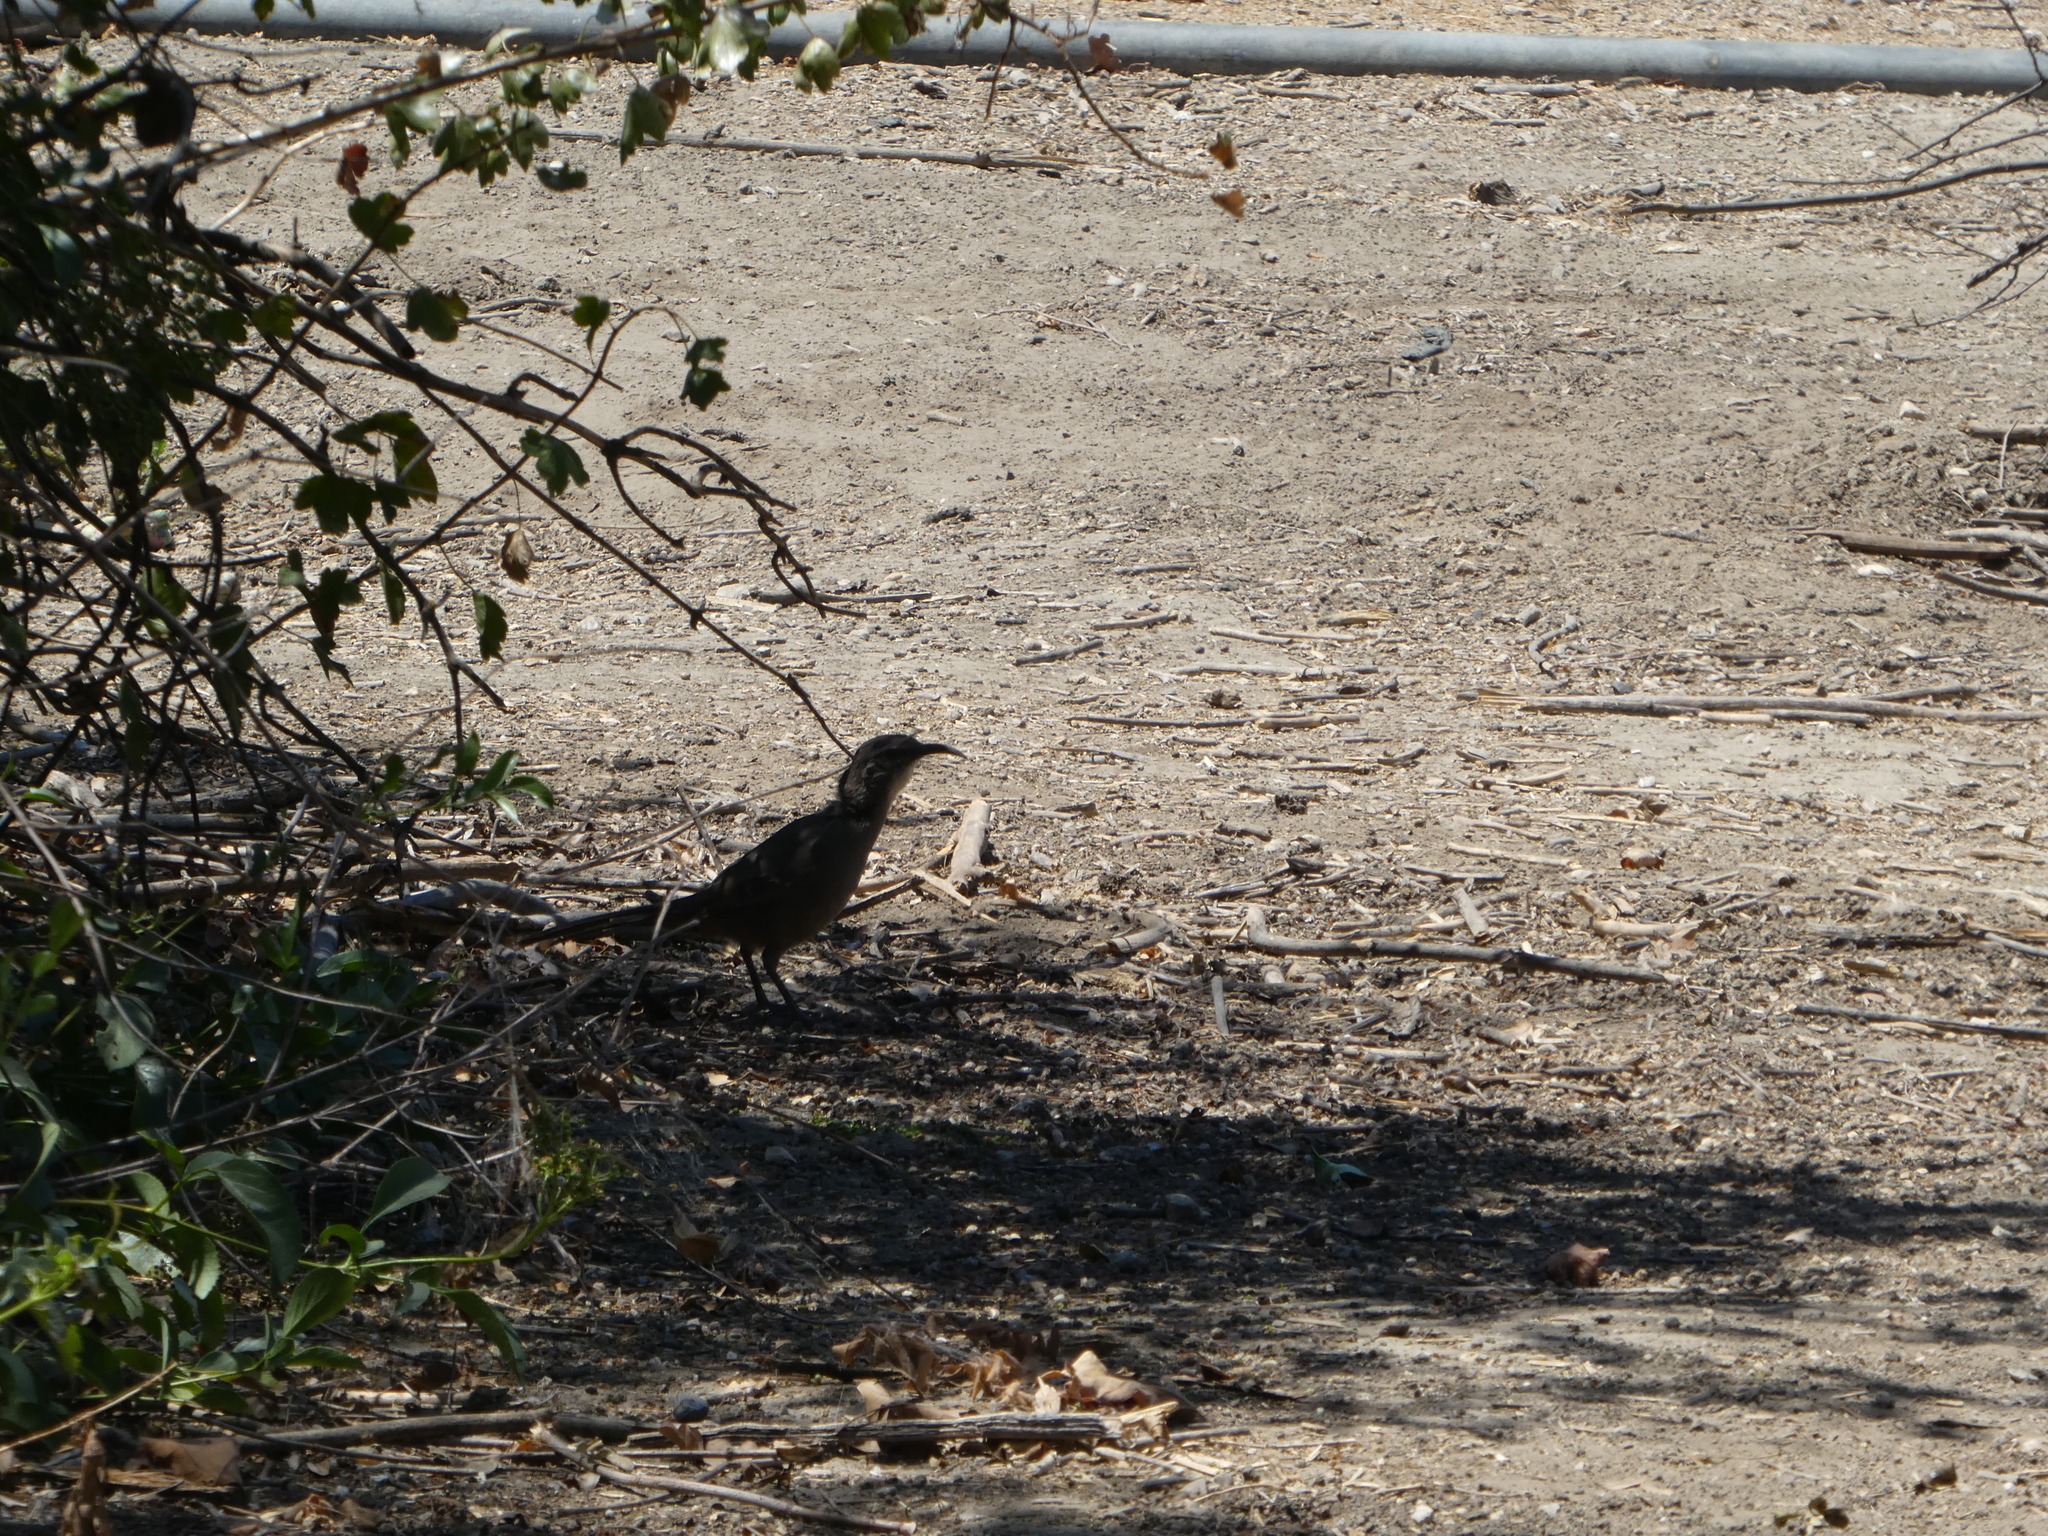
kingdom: Animalia
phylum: Chordata
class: Aves
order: Passeriformes
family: Mimidae
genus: Toxostoma
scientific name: Toxostoma redivivum
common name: California thrasher
